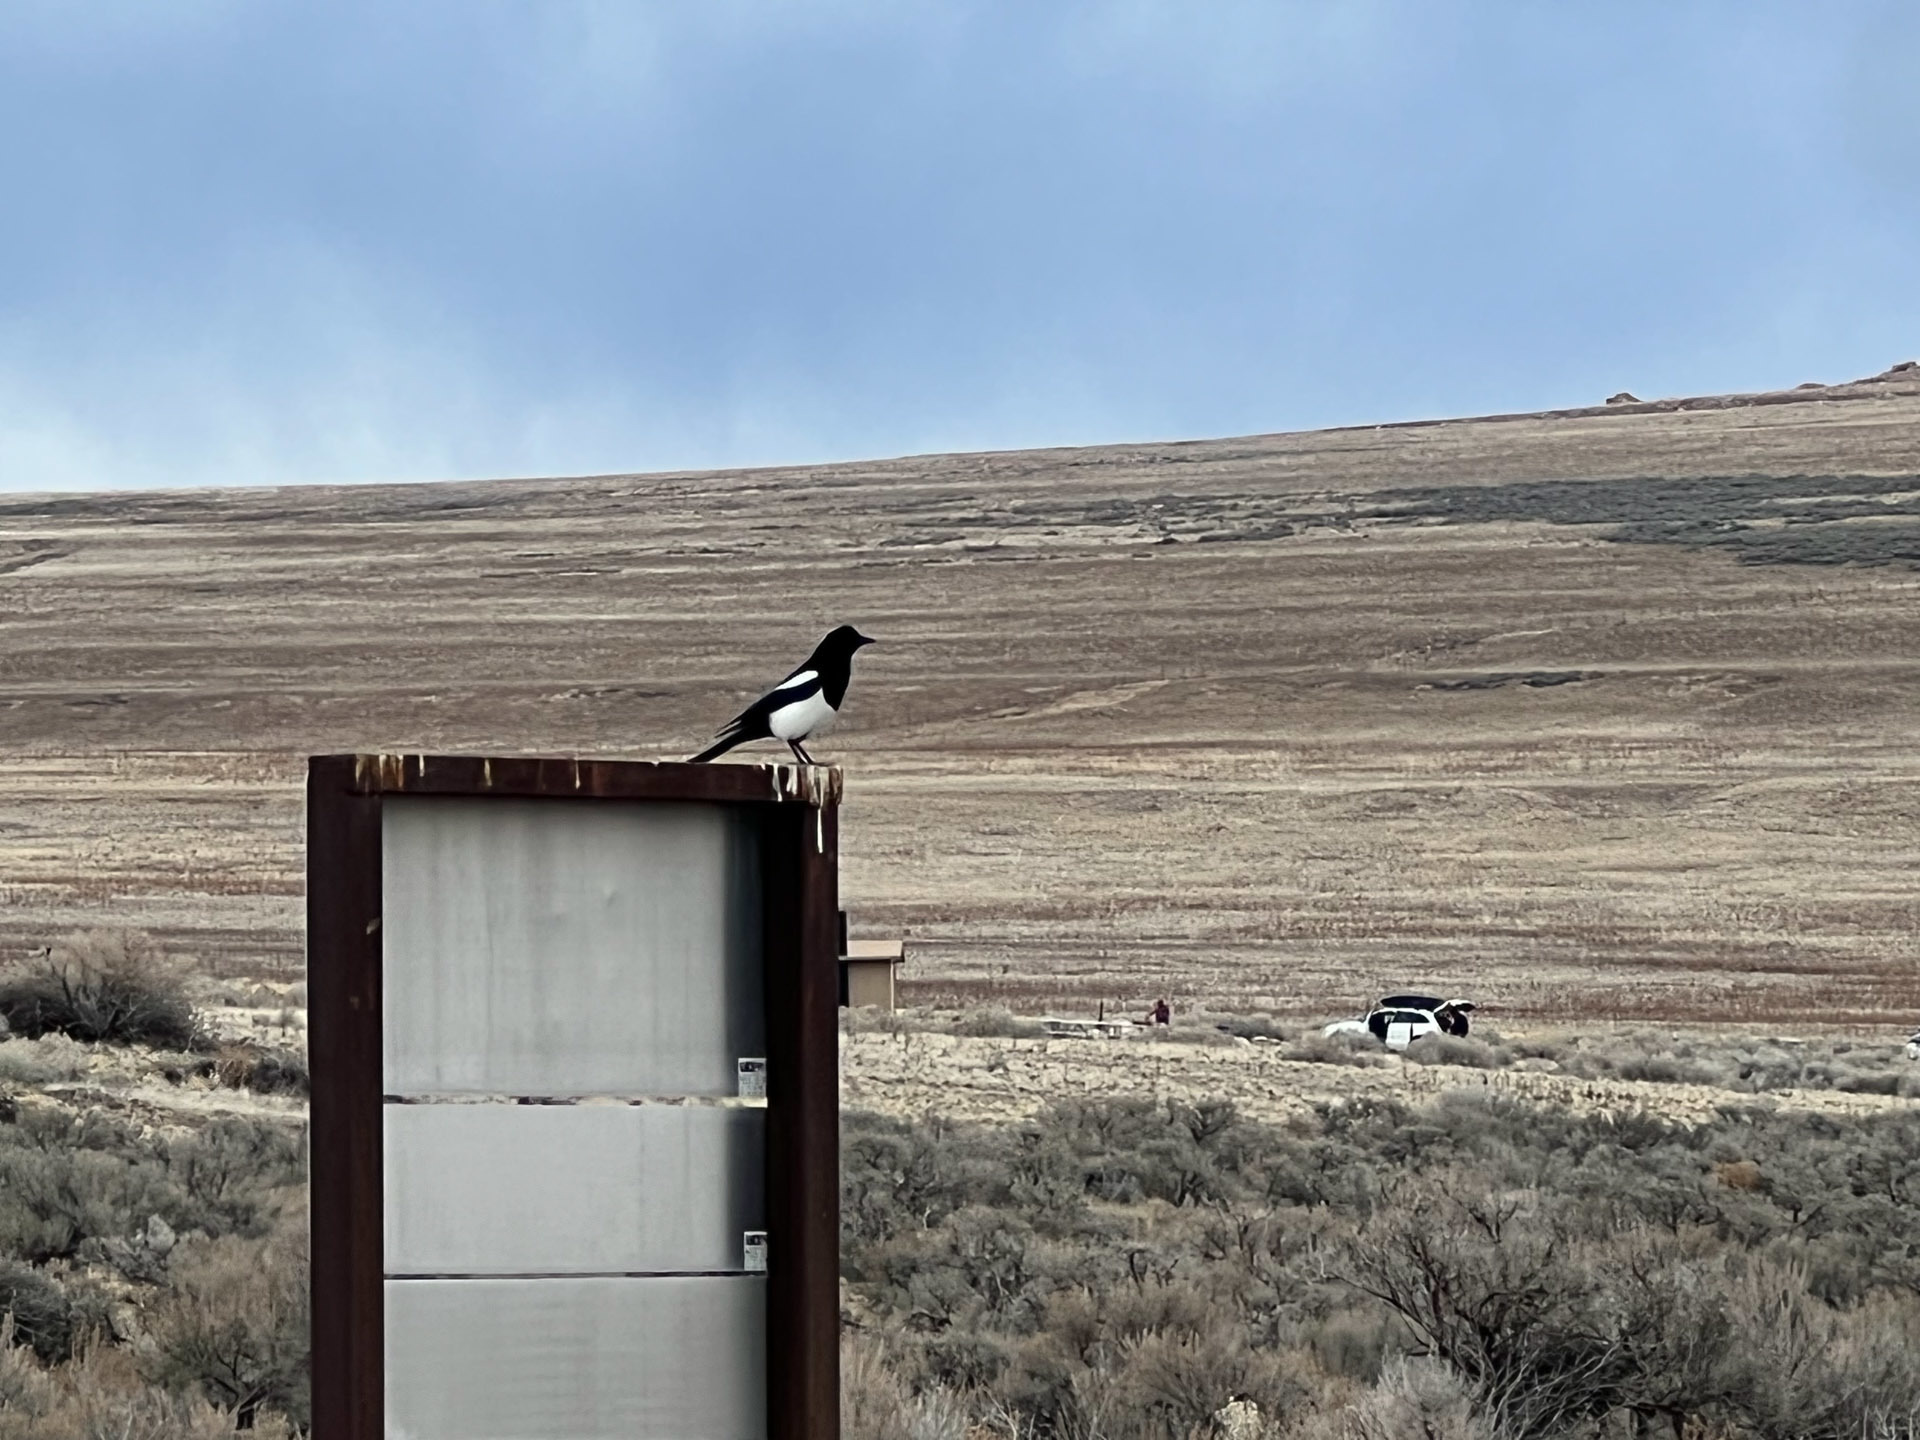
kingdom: Animalia
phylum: Chordata
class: Aves
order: Passeriformes
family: Corvidae
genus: Pica
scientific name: Pica hudsonia
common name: Black-billed magpie
